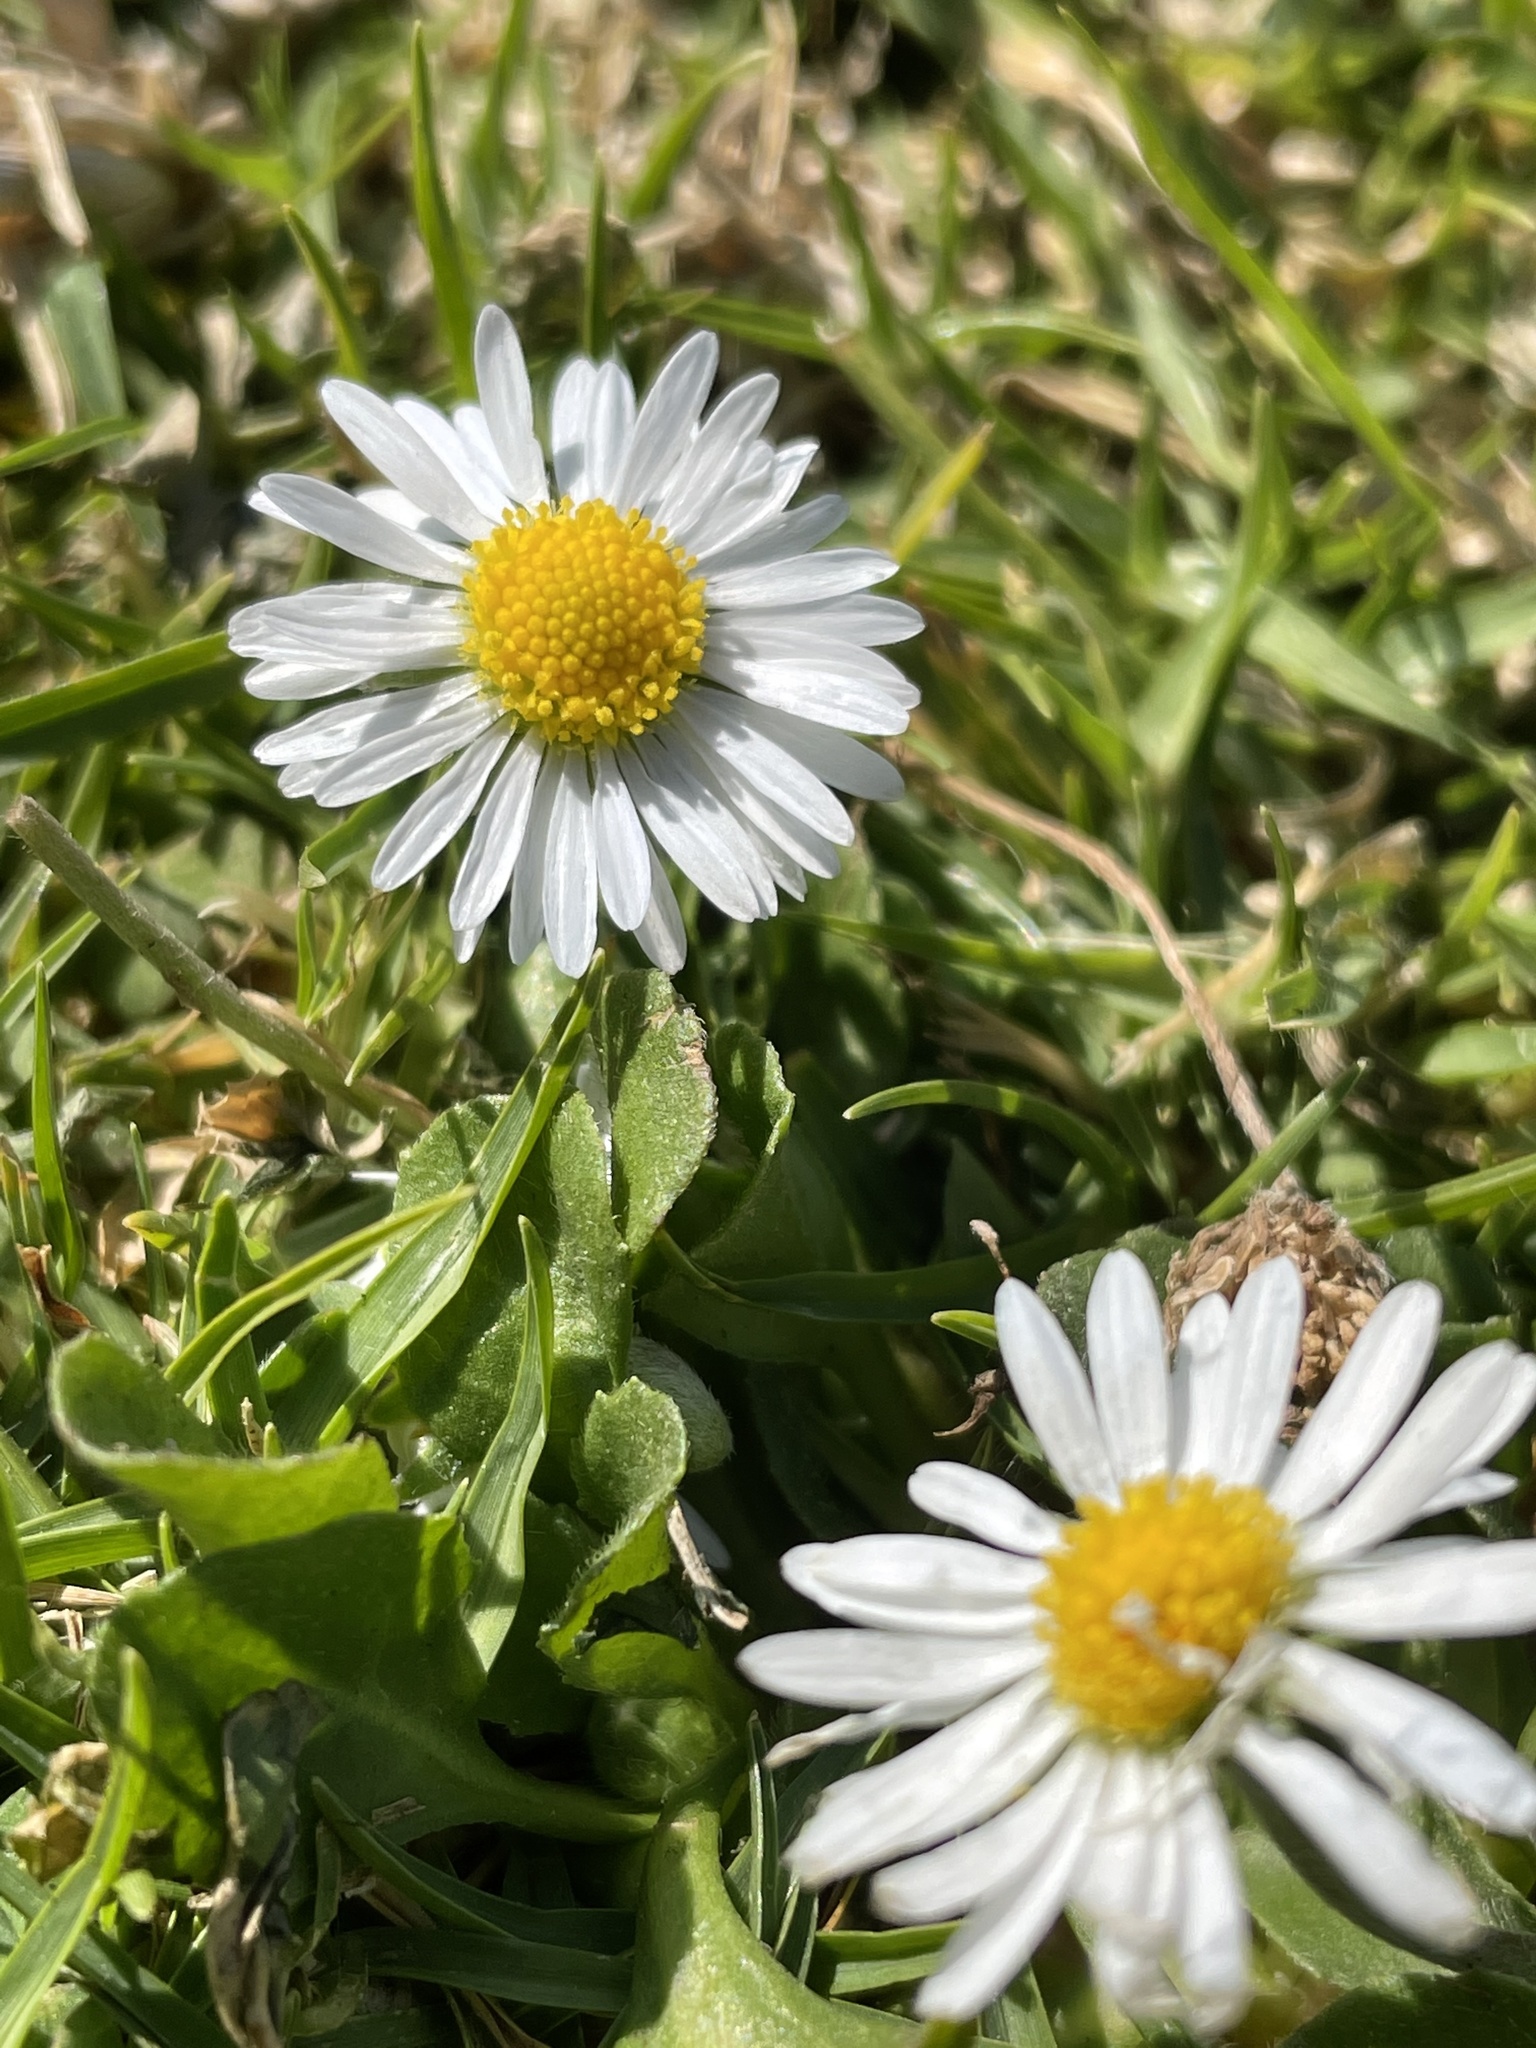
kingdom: Plantae
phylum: Tracheophyta
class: Magnoliopsida
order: Asterales
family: Asteraceae
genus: Bellis
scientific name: Bellis perennis
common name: Lawndaisy
